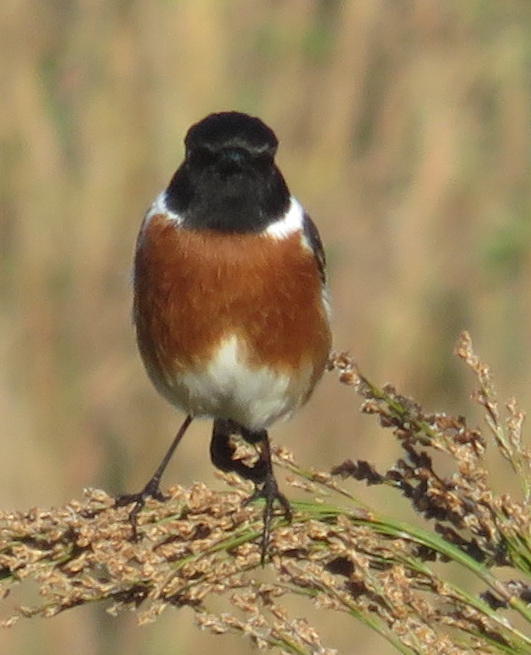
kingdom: Animalia
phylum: Chordata
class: Aves
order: Passeriformes
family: Muscicapidae
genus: Saxicola
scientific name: Saxicola torquatus
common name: African stonechat
